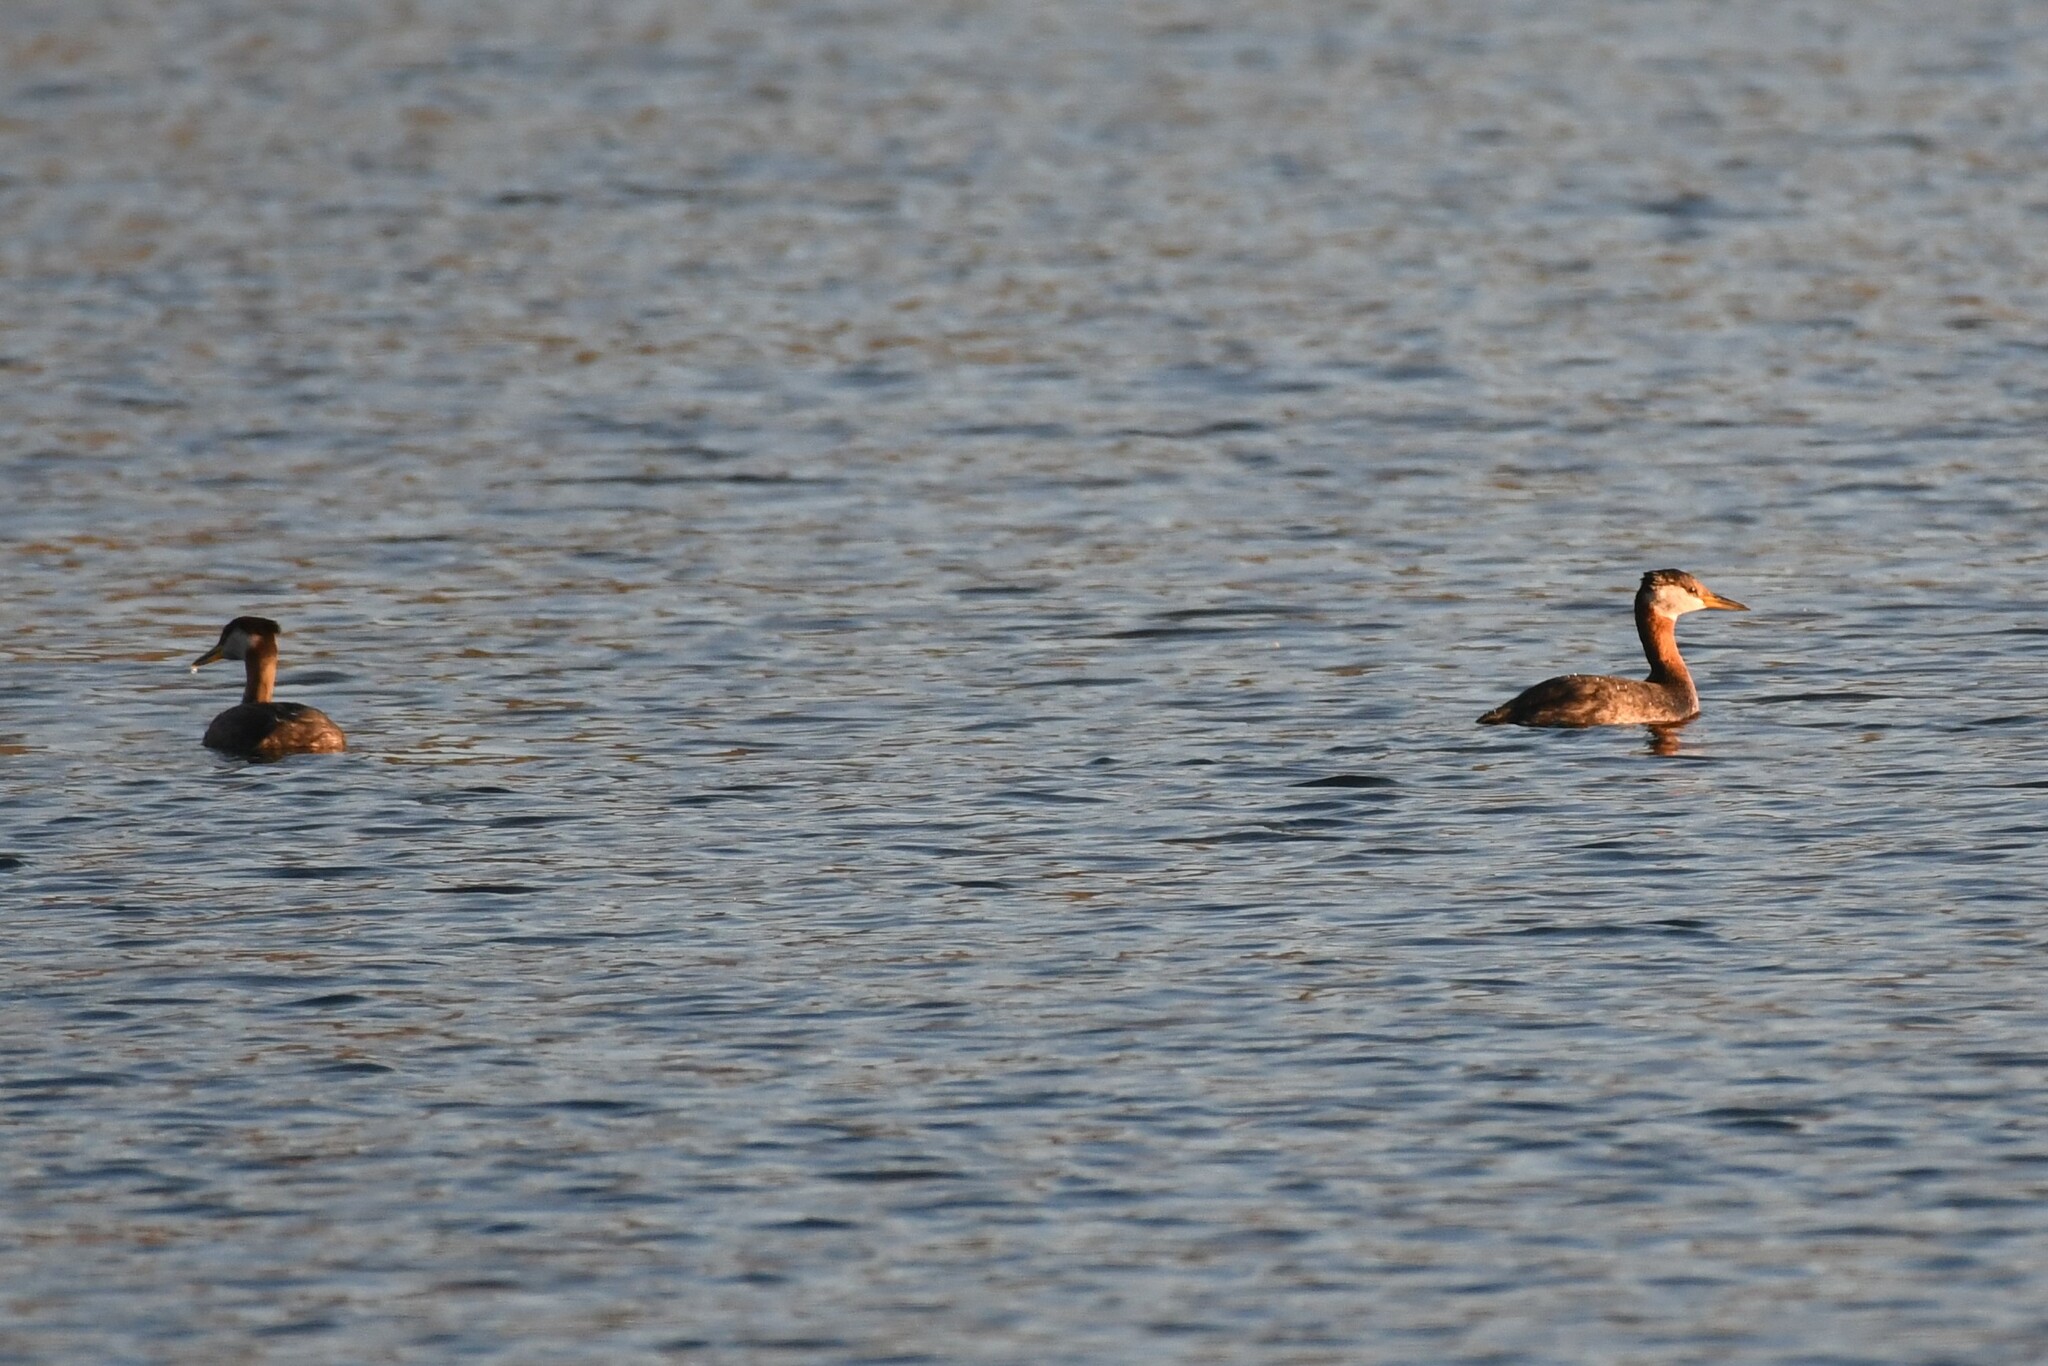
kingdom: Animalia
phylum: Chordata
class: Aves
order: Podicipediformes
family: Podicipedidae
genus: Podiceps
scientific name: Podiceps grisegena
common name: Red-necked grebe
